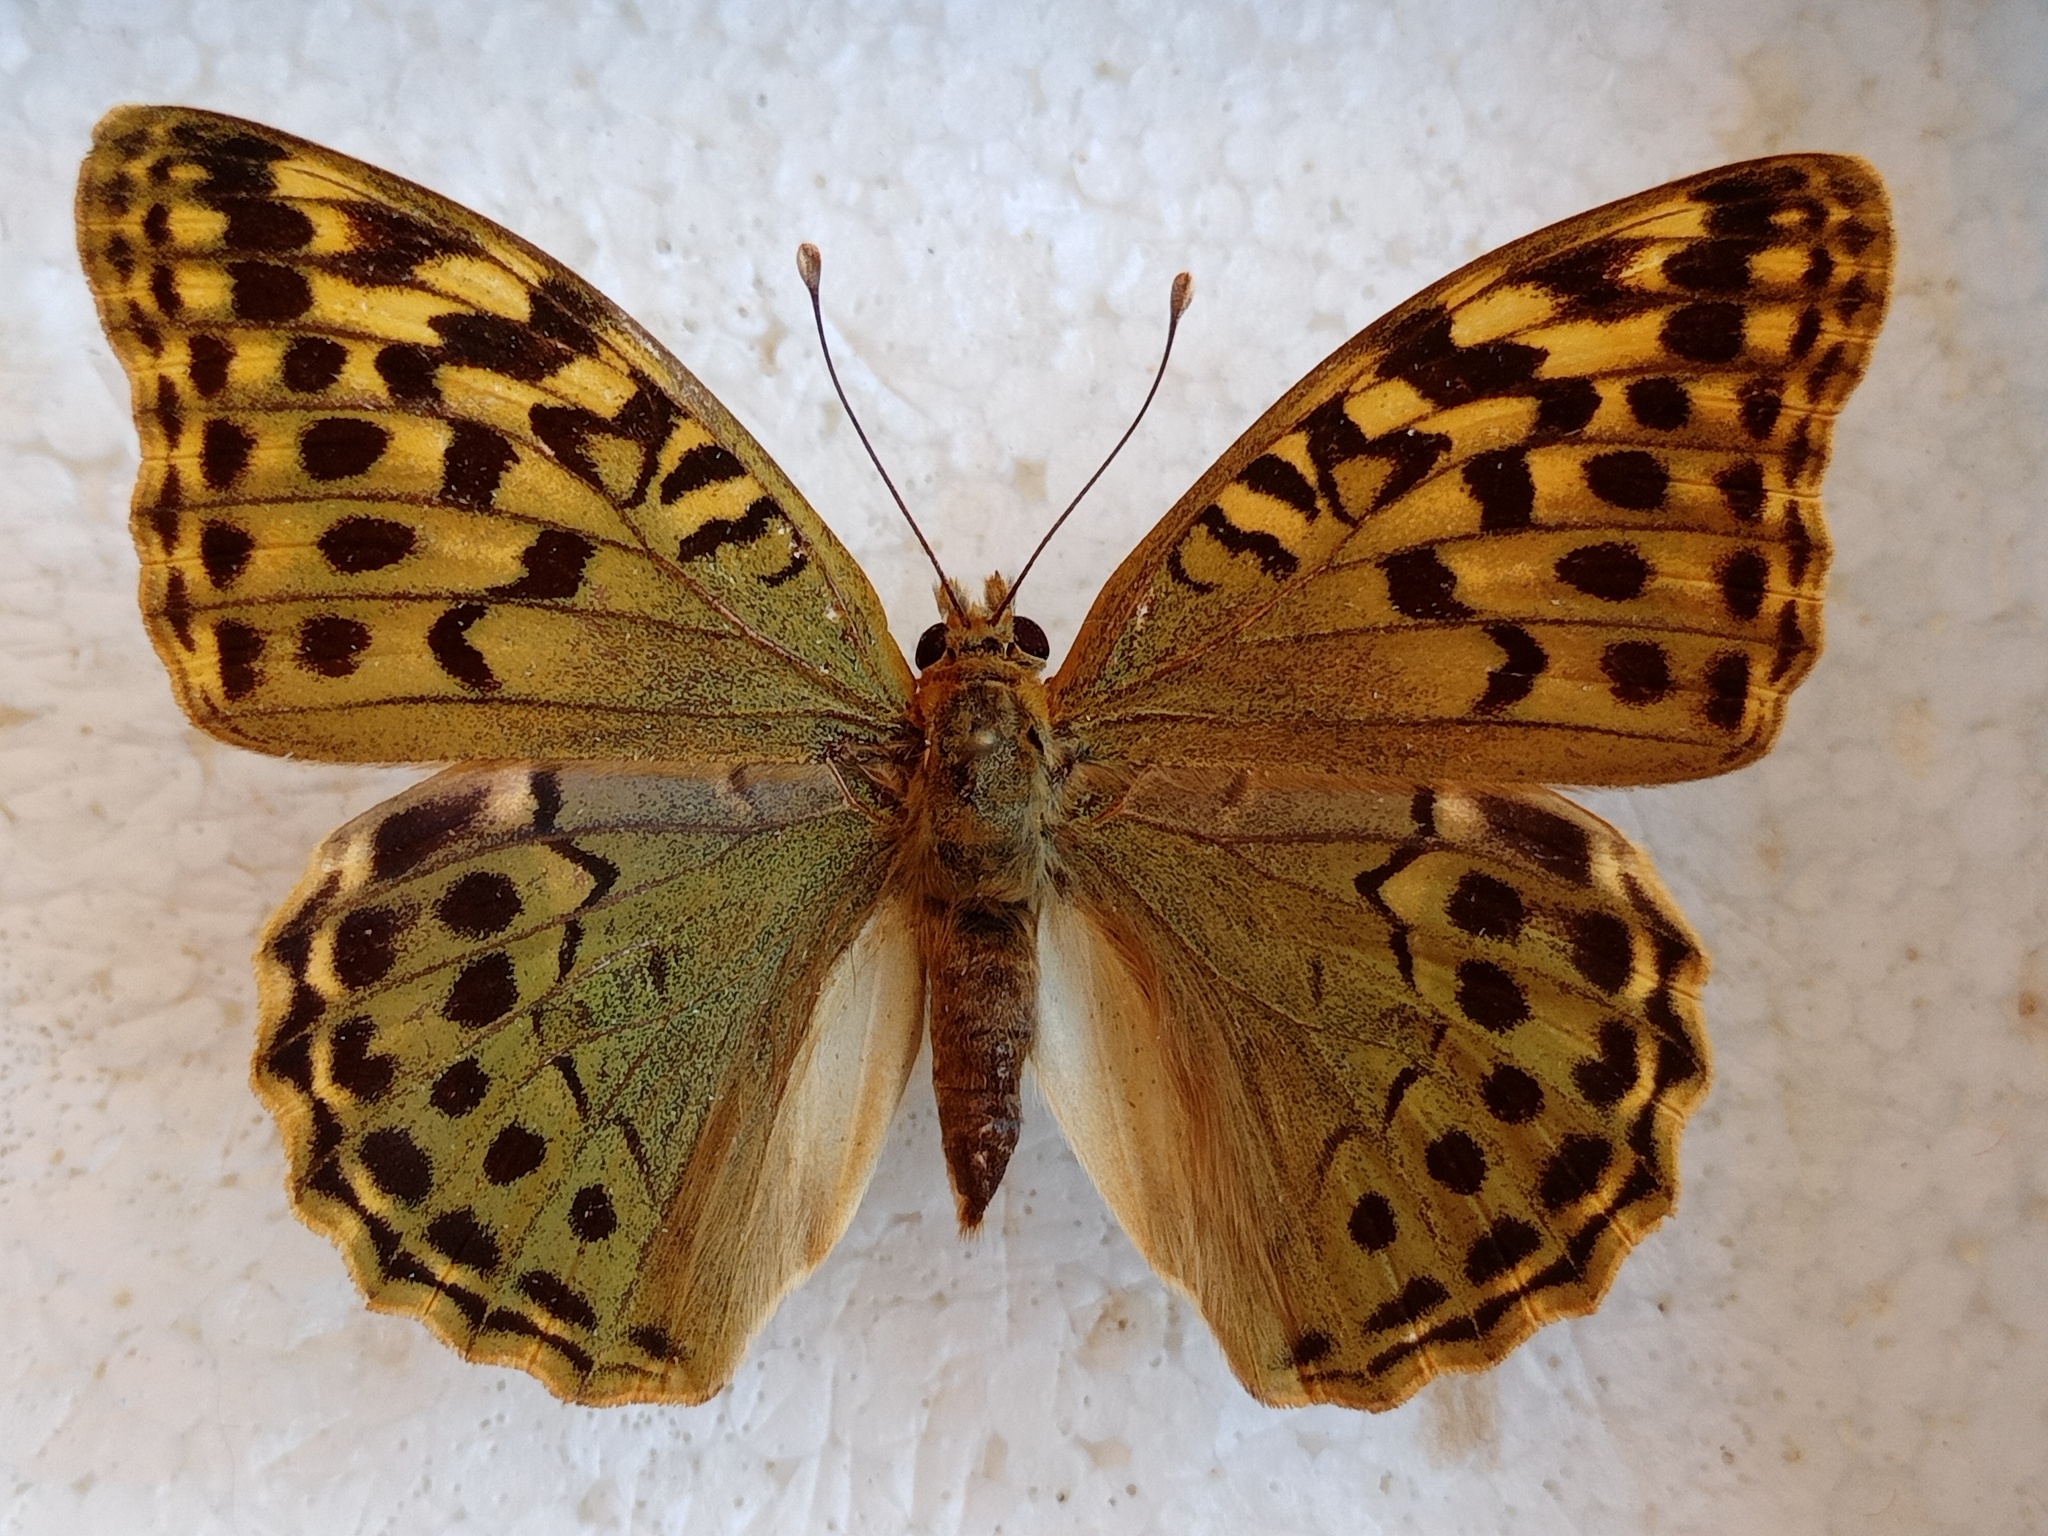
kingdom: Animalia
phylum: Arthropoda
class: Insecta
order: Lepidoptera
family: Nymphalidae
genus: Damora
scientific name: Damora pandora
